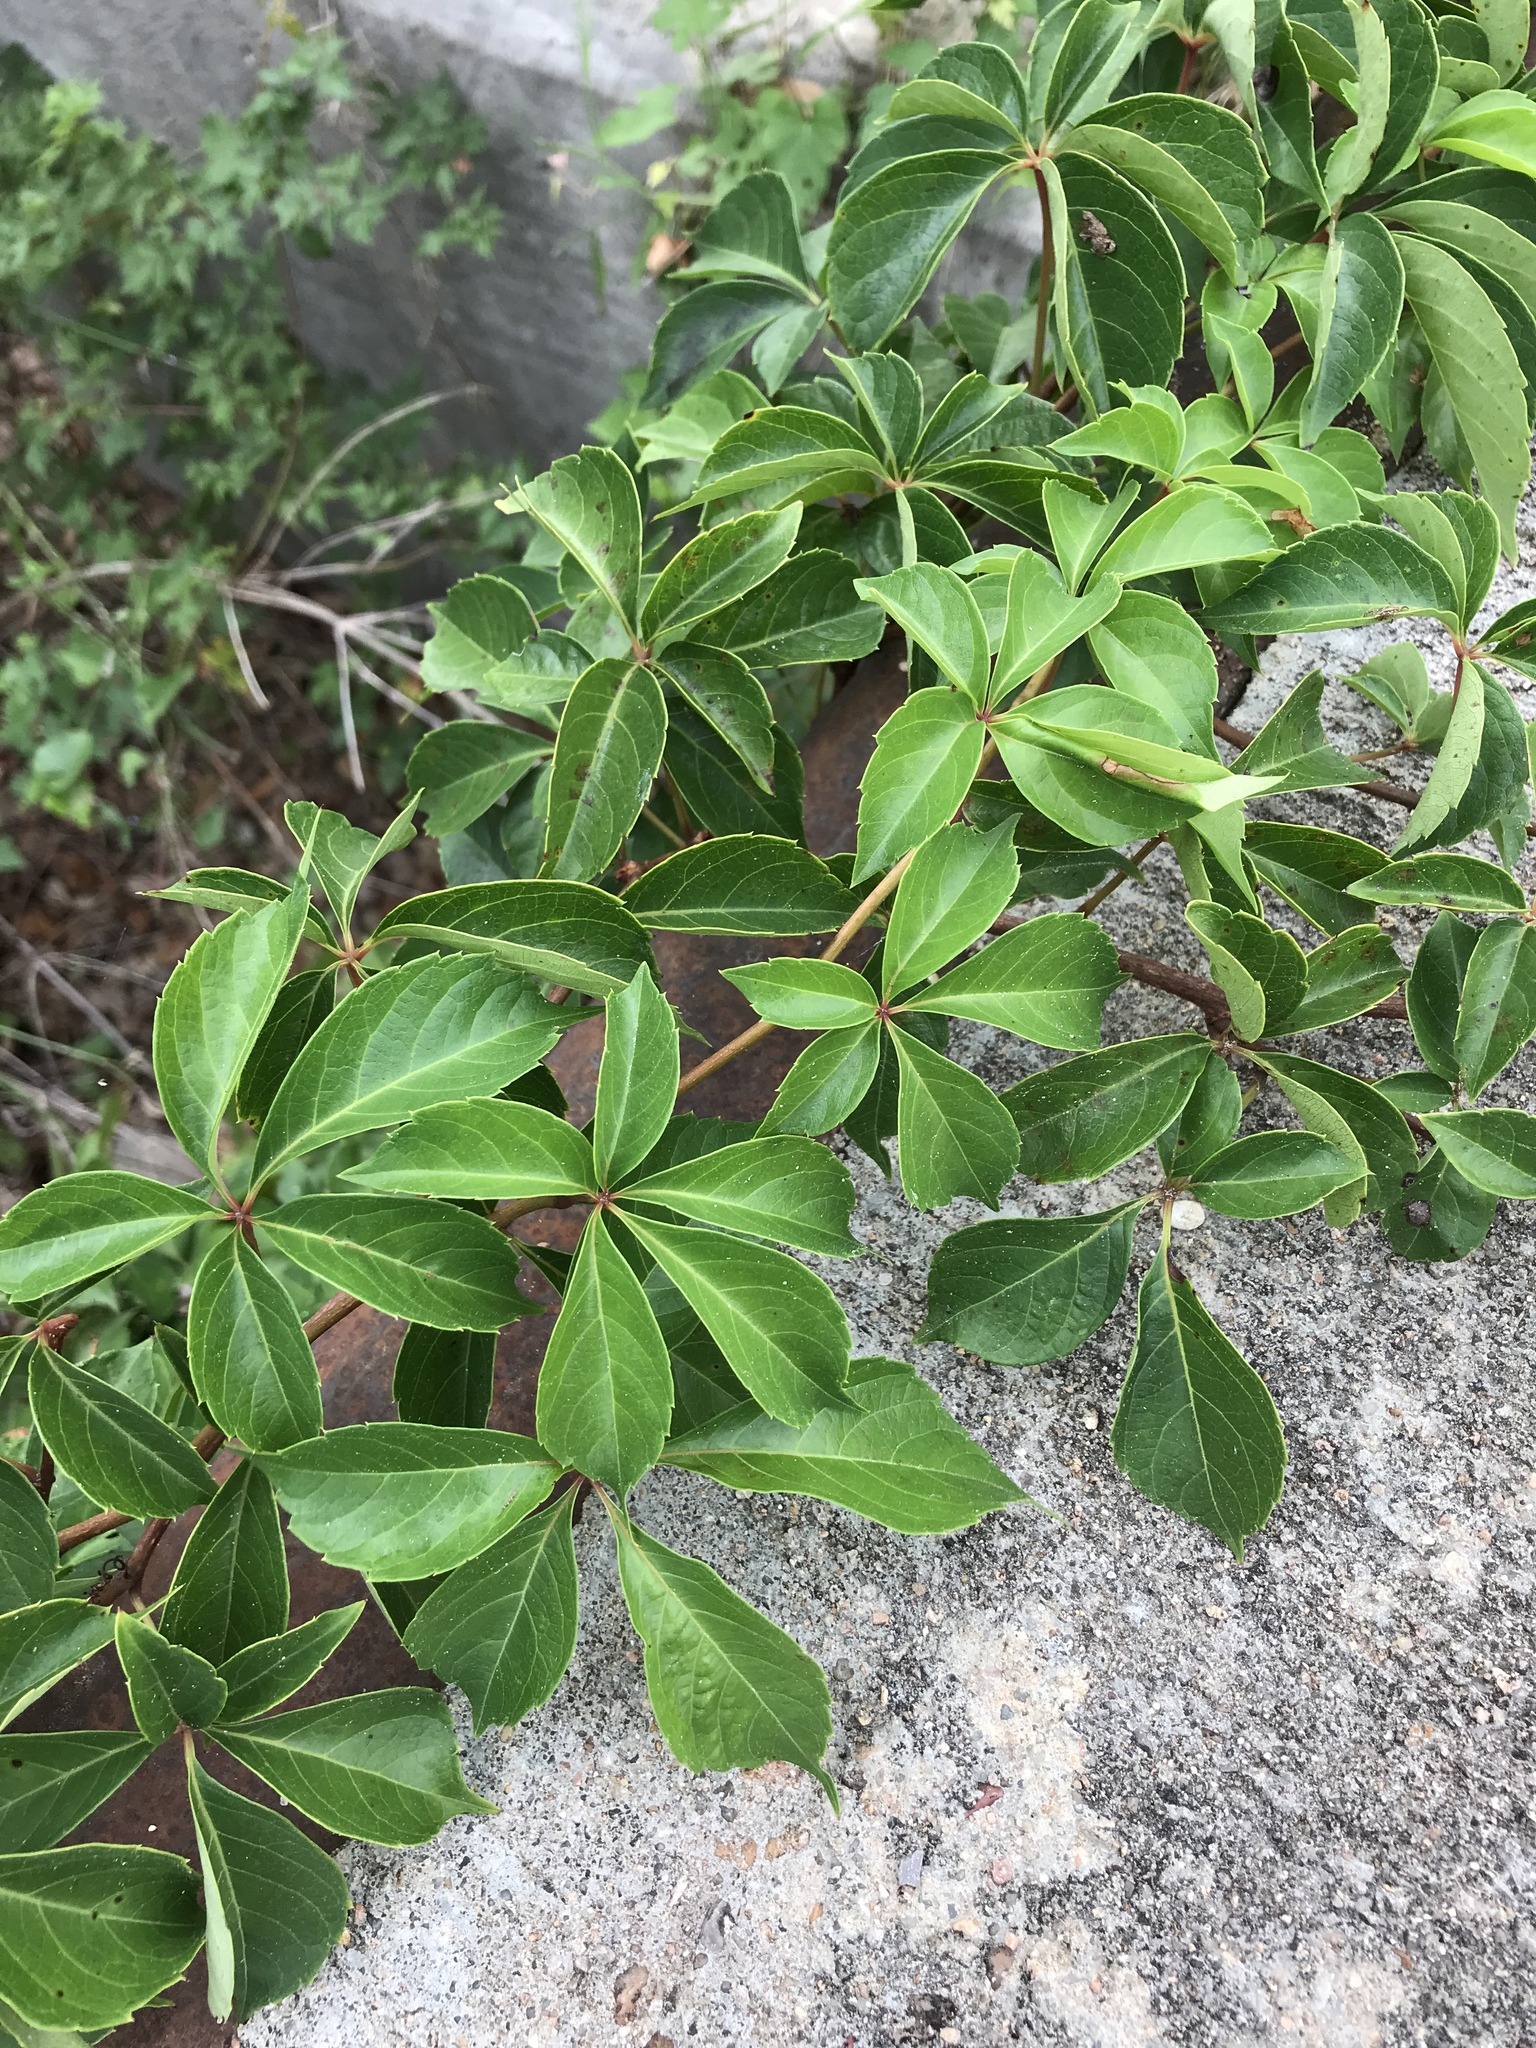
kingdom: Plantae
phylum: Tracheophyta
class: Magnoliopsida
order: Vitales
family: Vitaceae
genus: Parthenocissus
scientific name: Parthenocissus quinquefolia
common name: Virginia-creeper
